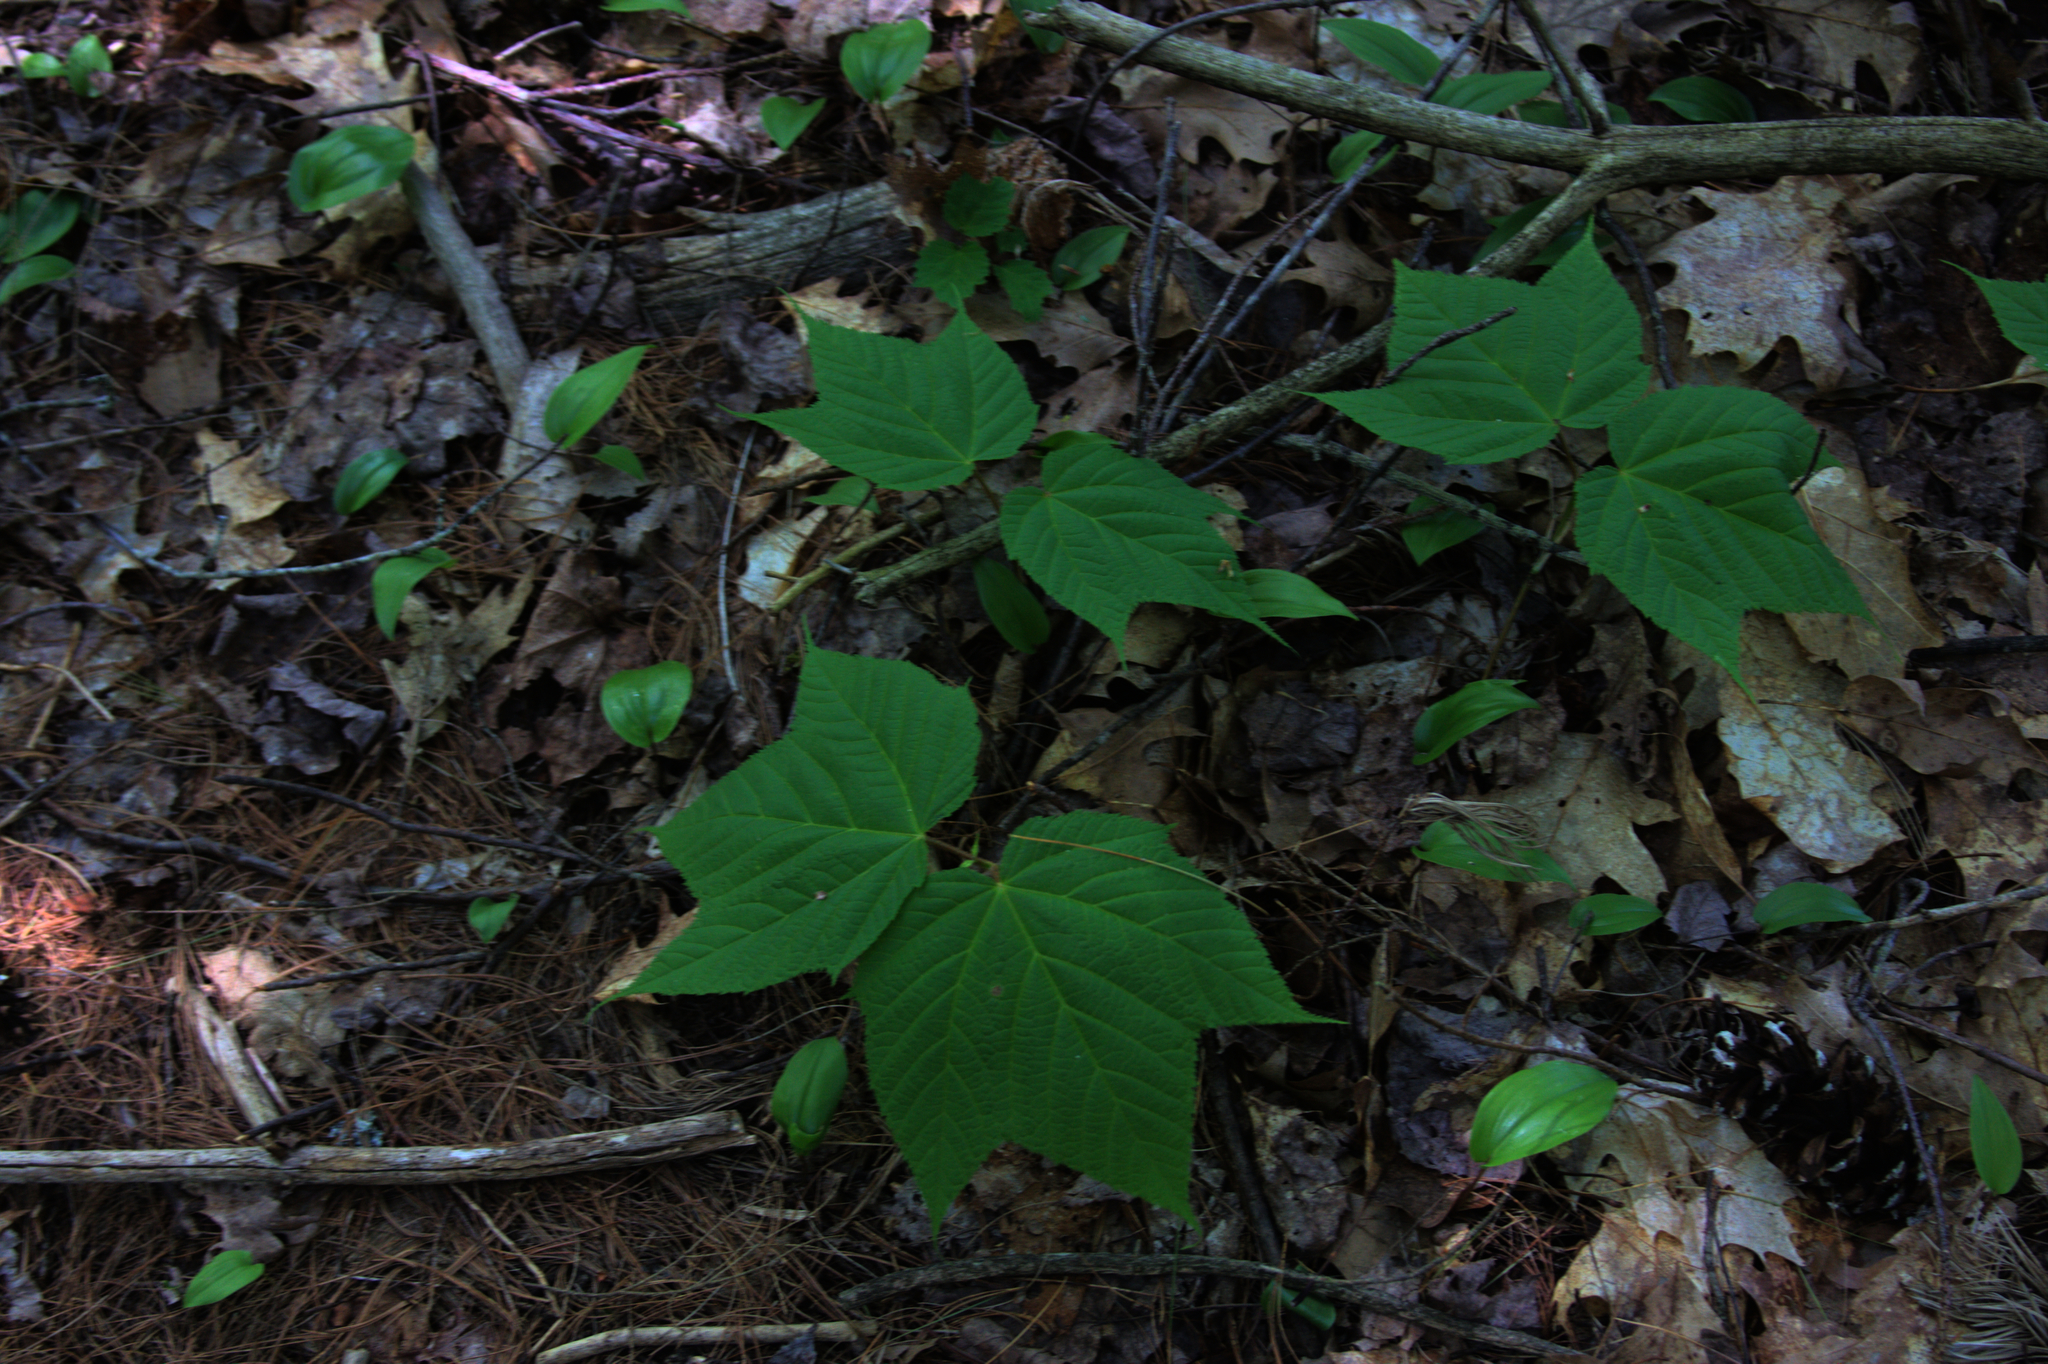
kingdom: Plantae
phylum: Tracheophyta
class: Liliopsida
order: Asparagales
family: Asparagaceae
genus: Maianthemum
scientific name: Maianthemum canadense
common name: False lily-of-the-valley
